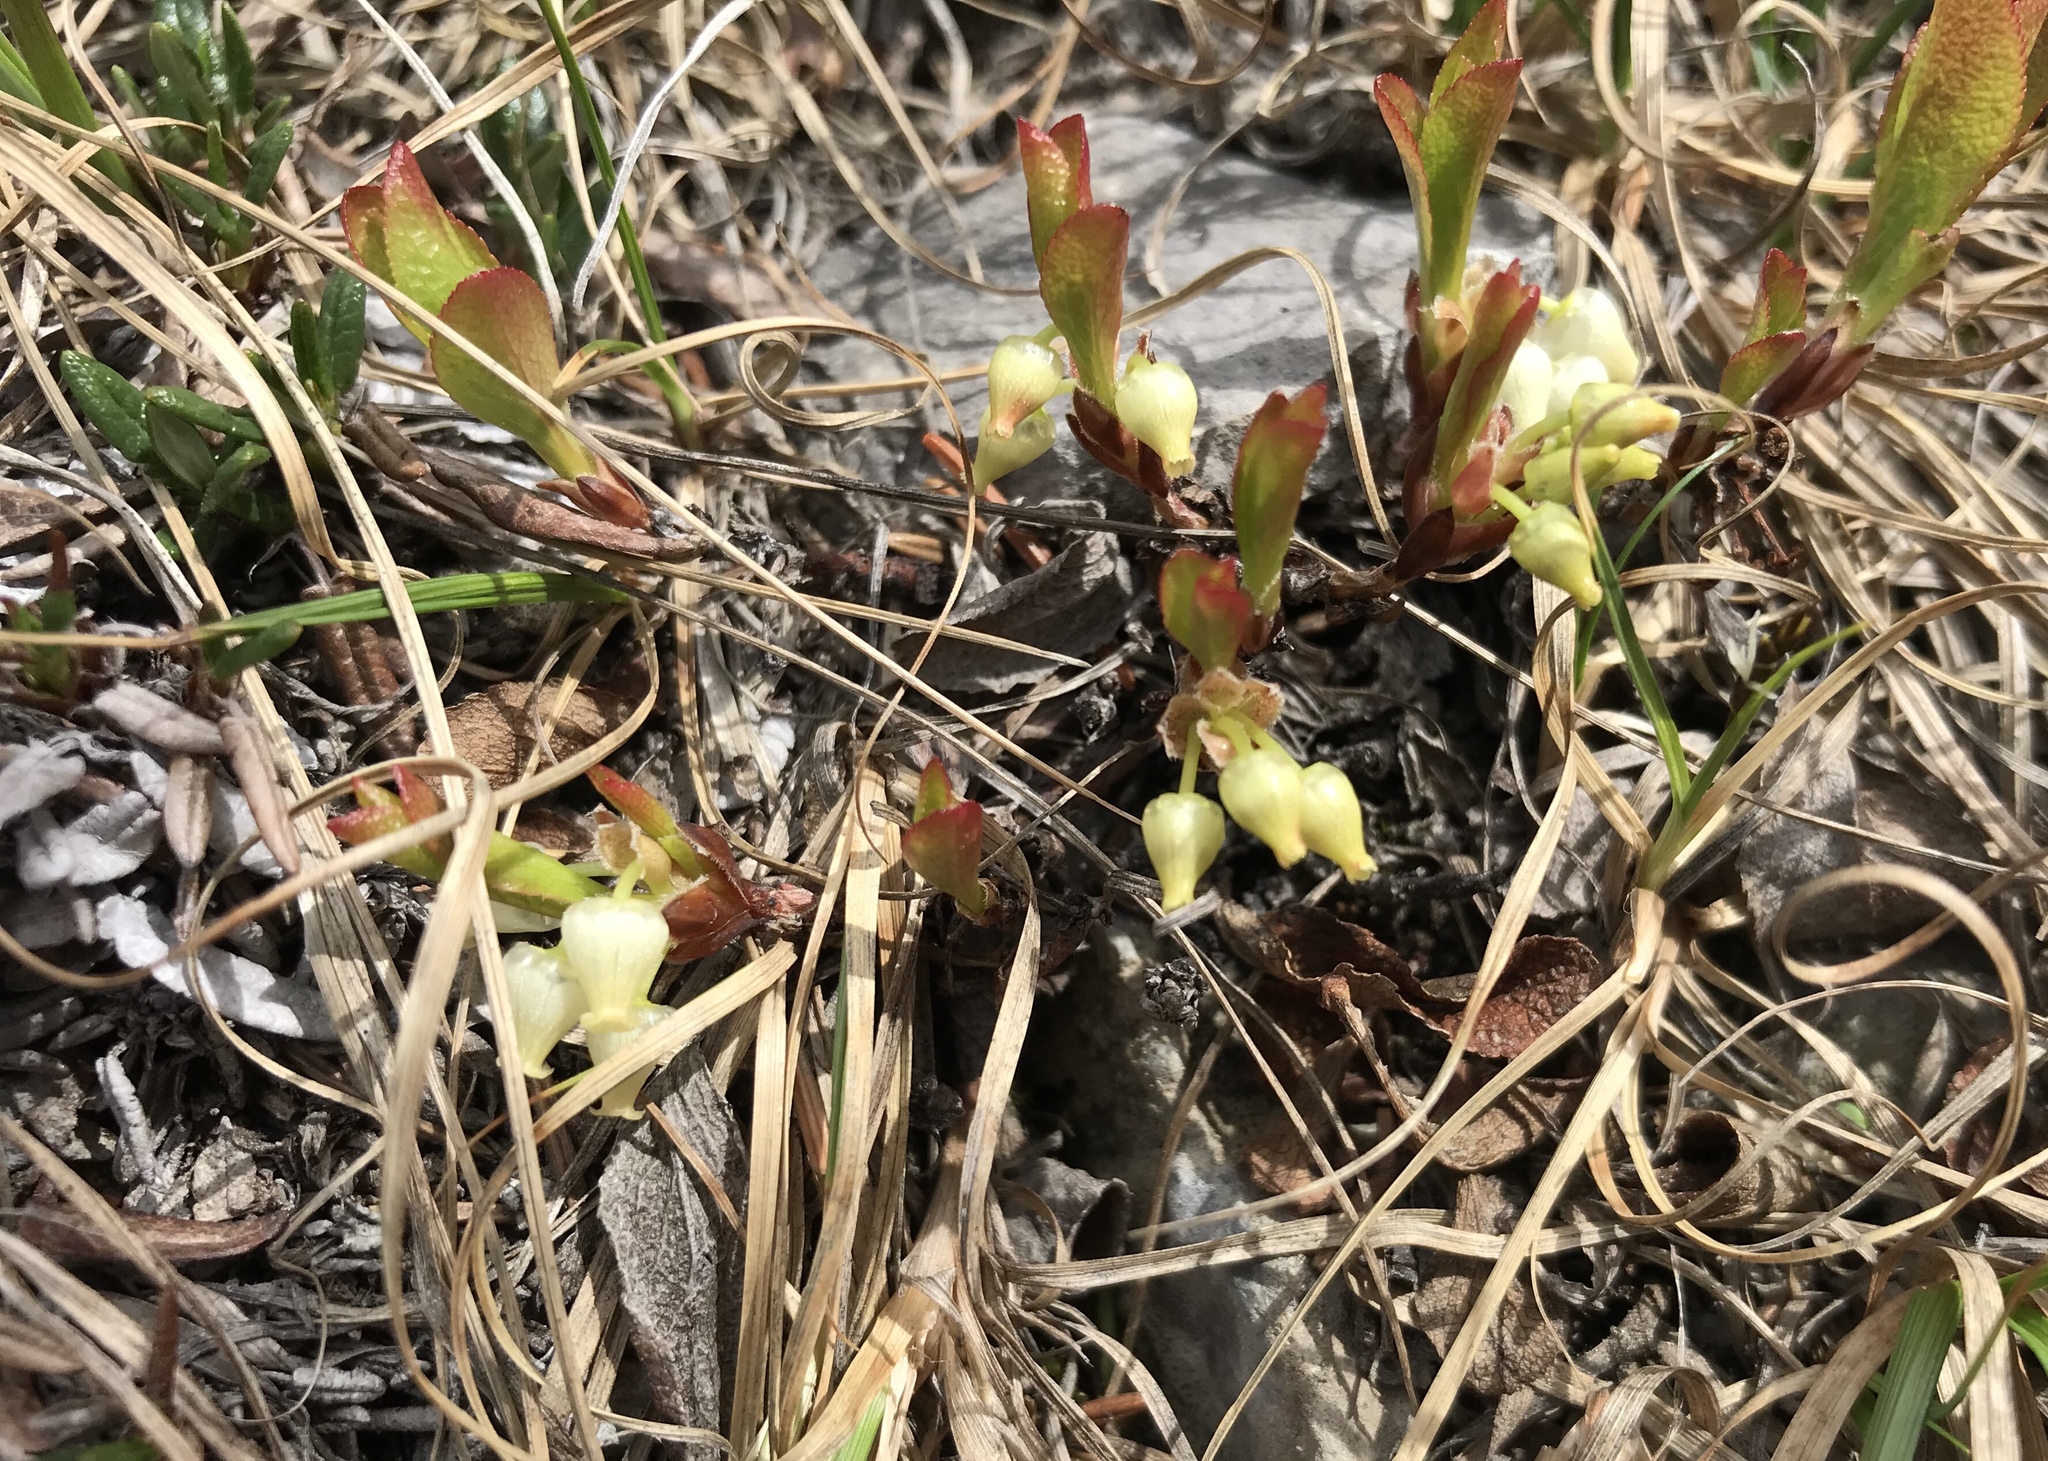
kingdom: Plantae
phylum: Tracheophyta
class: Magnoliopsida
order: Ericales
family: Ericaceae
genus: Arctostaphylos
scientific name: Arctostaphylos rubra
